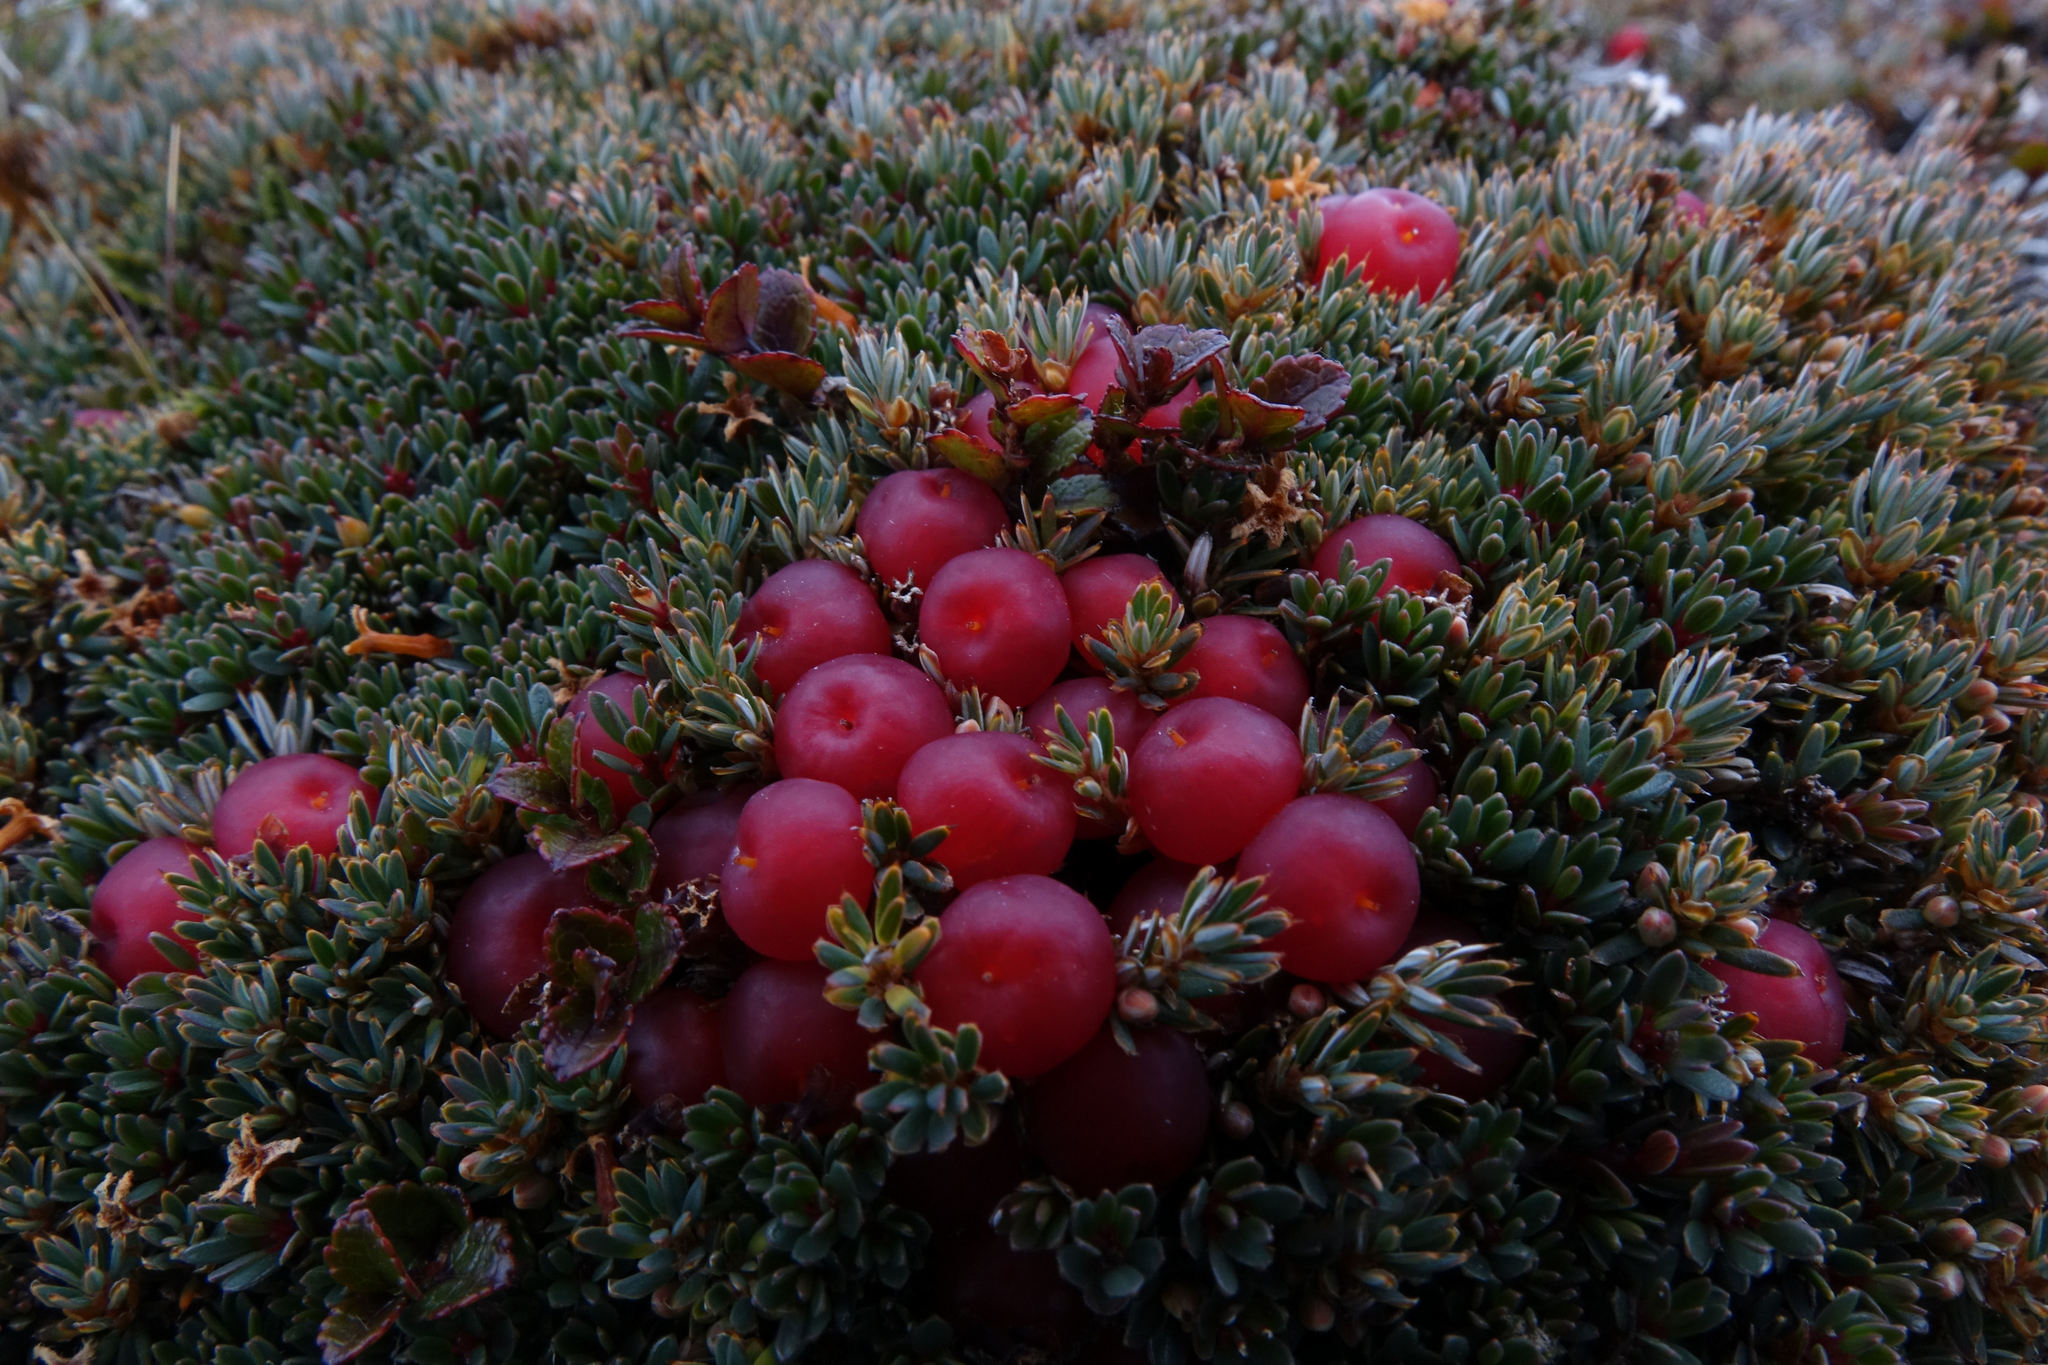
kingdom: Plantae
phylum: Tracheophyta
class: Magnoliopsida
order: Ericales
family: Ericaceae
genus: Montitega
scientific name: Montitega dealbata
